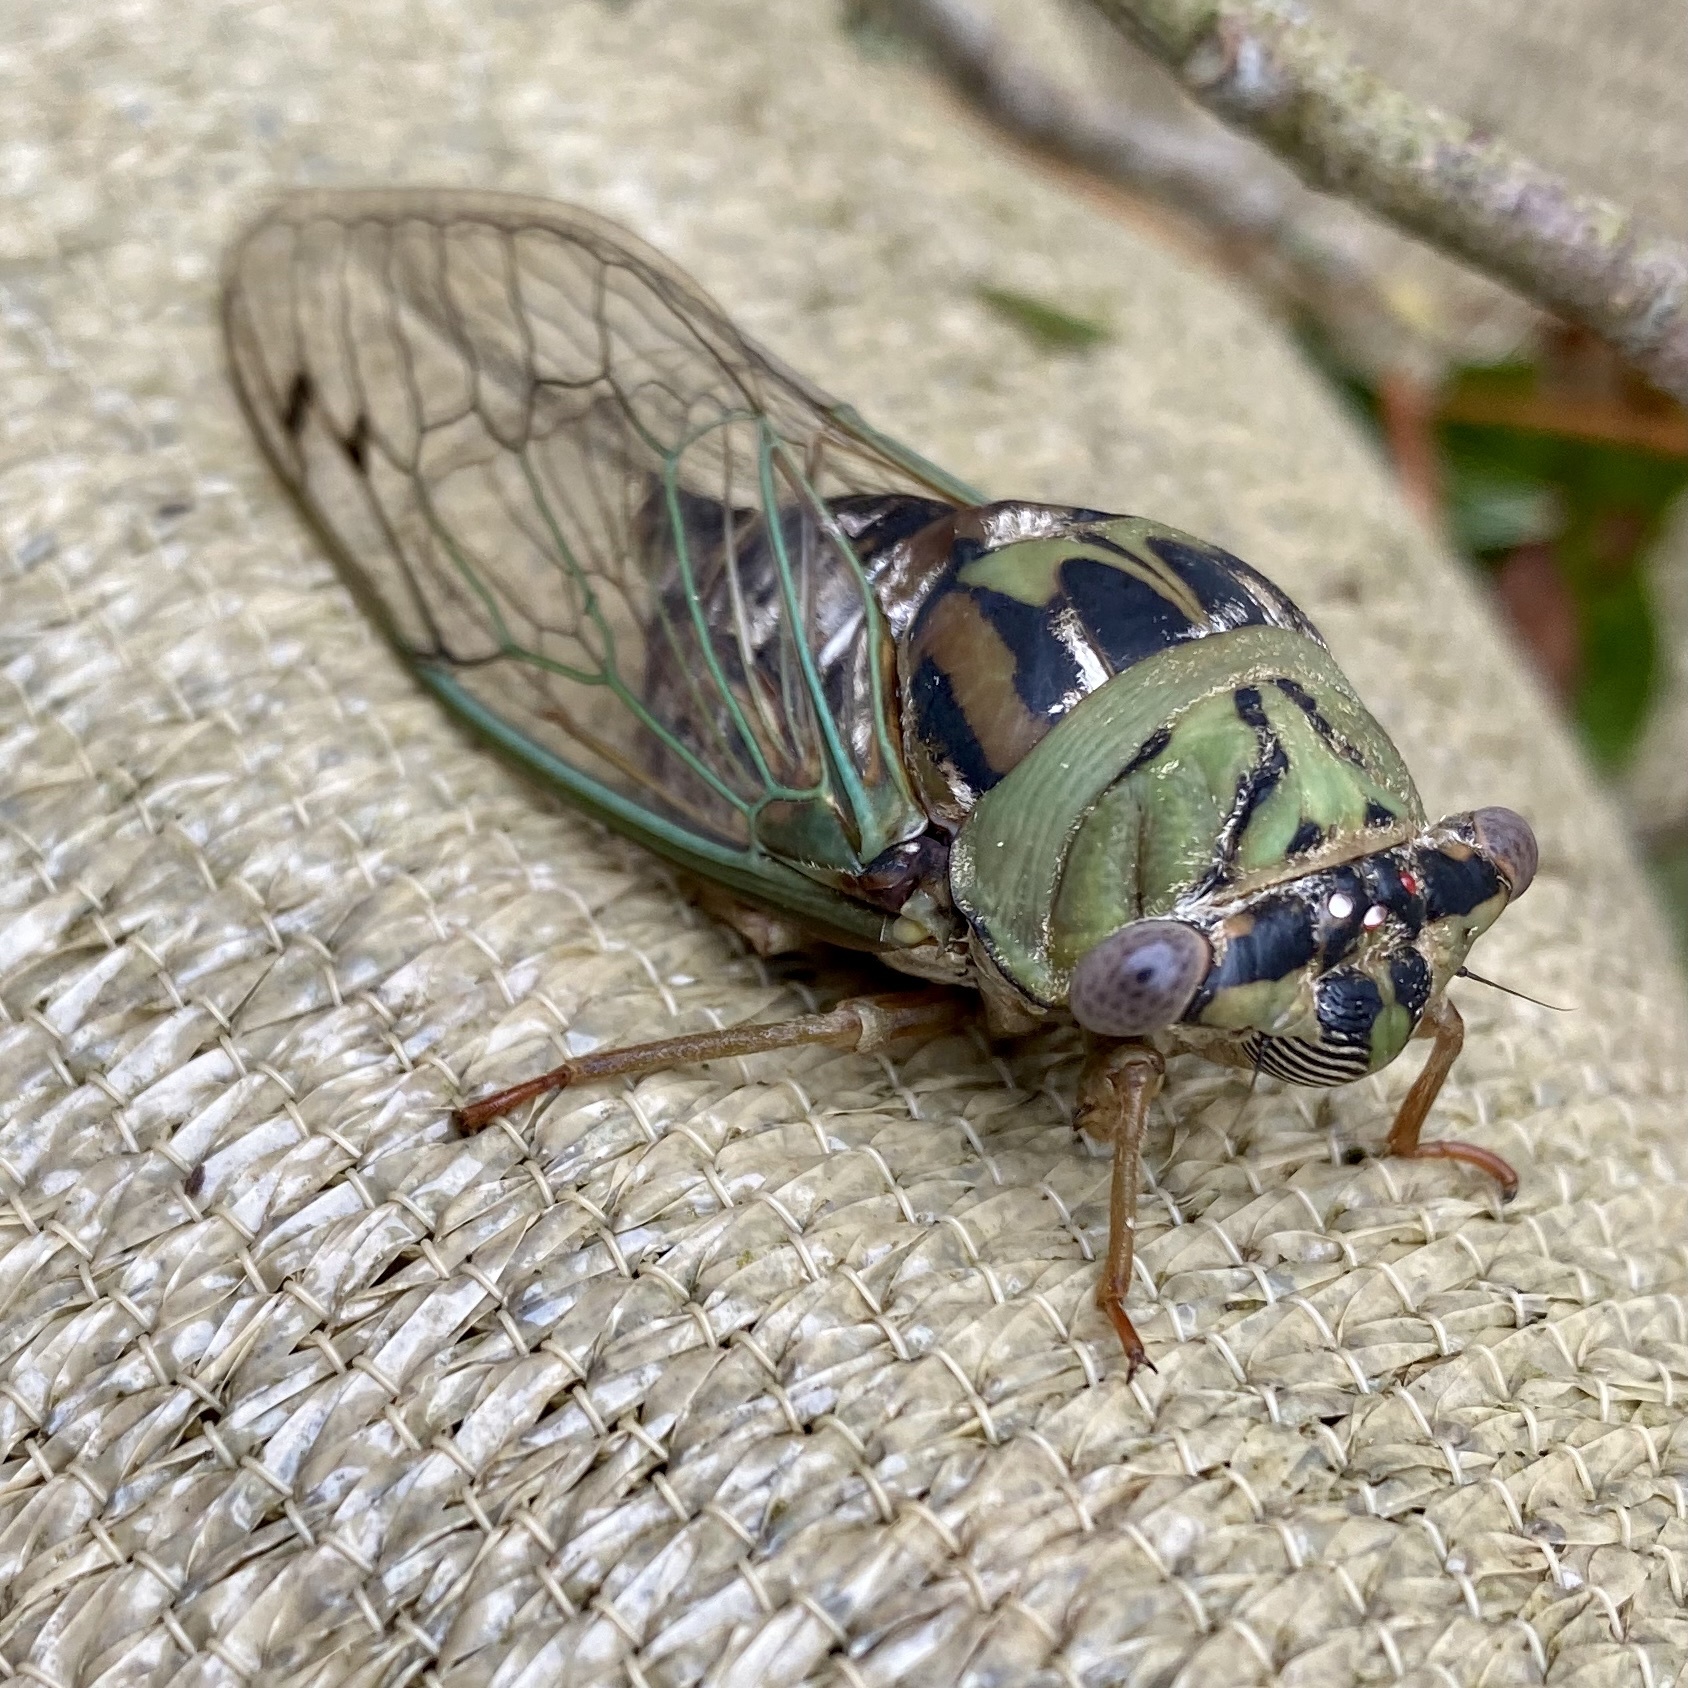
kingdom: Animalia
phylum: Arthropoda
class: Insecta
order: Hemiptera
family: Cicadidae
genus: Megatibicen
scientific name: Megatibicen resh
